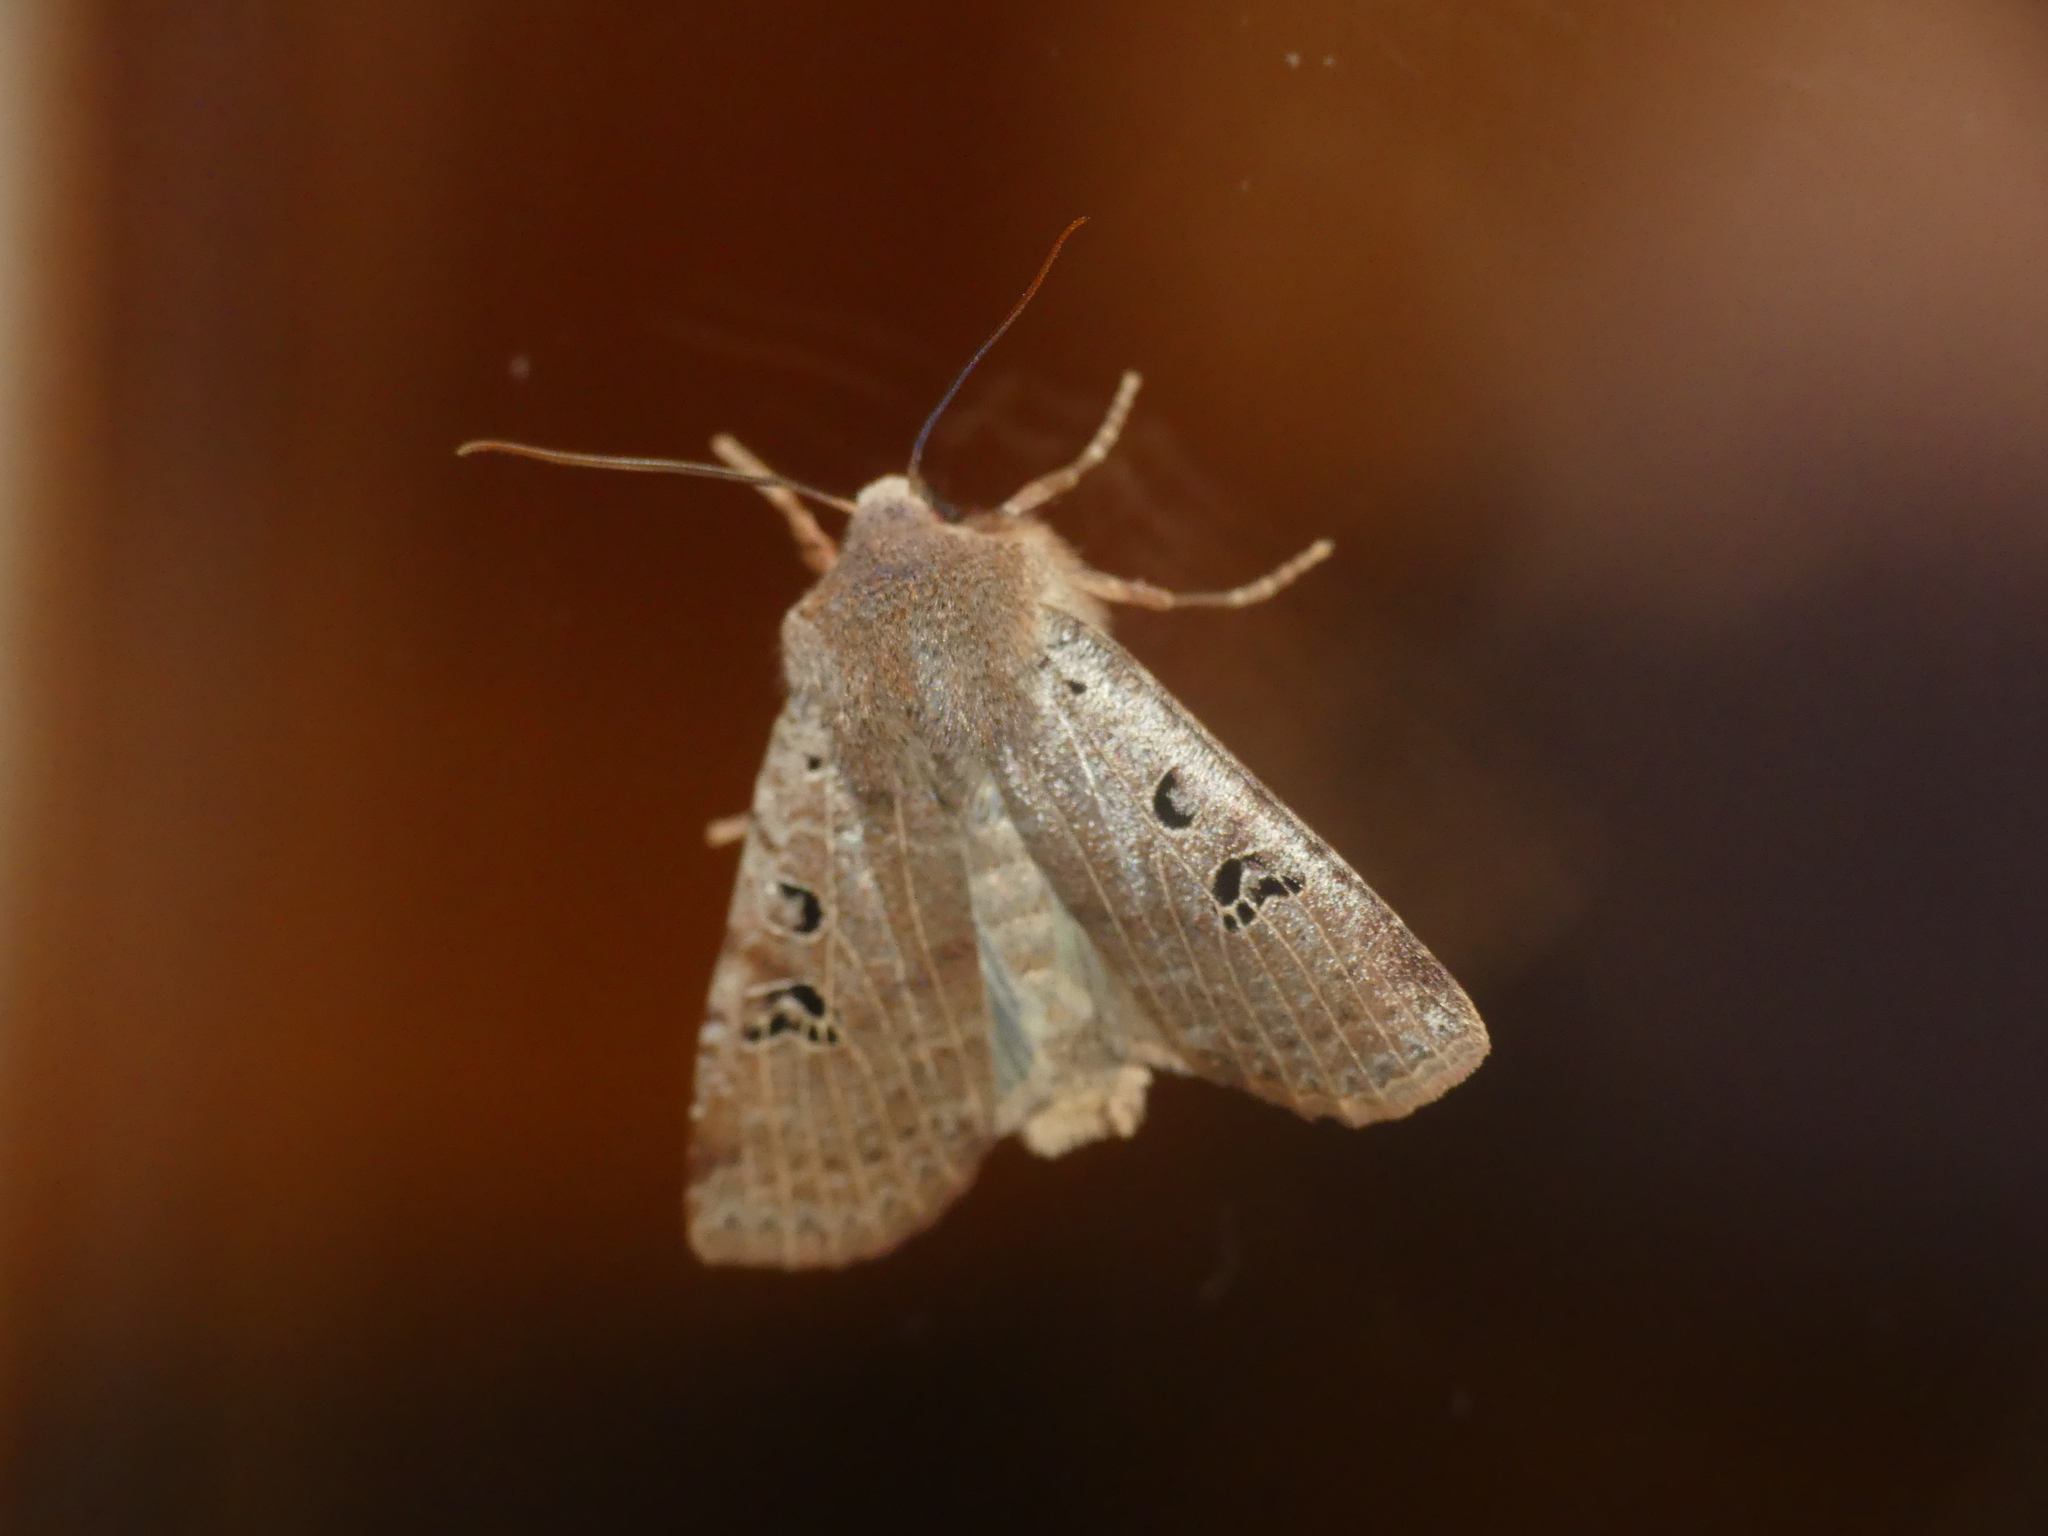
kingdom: Animalia
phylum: Arthropoda
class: Insecta
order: Lepidoptera
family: Noctuidae
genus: Conistra
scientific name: Conistra rubiginosa
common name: Black-spotted chestnut
